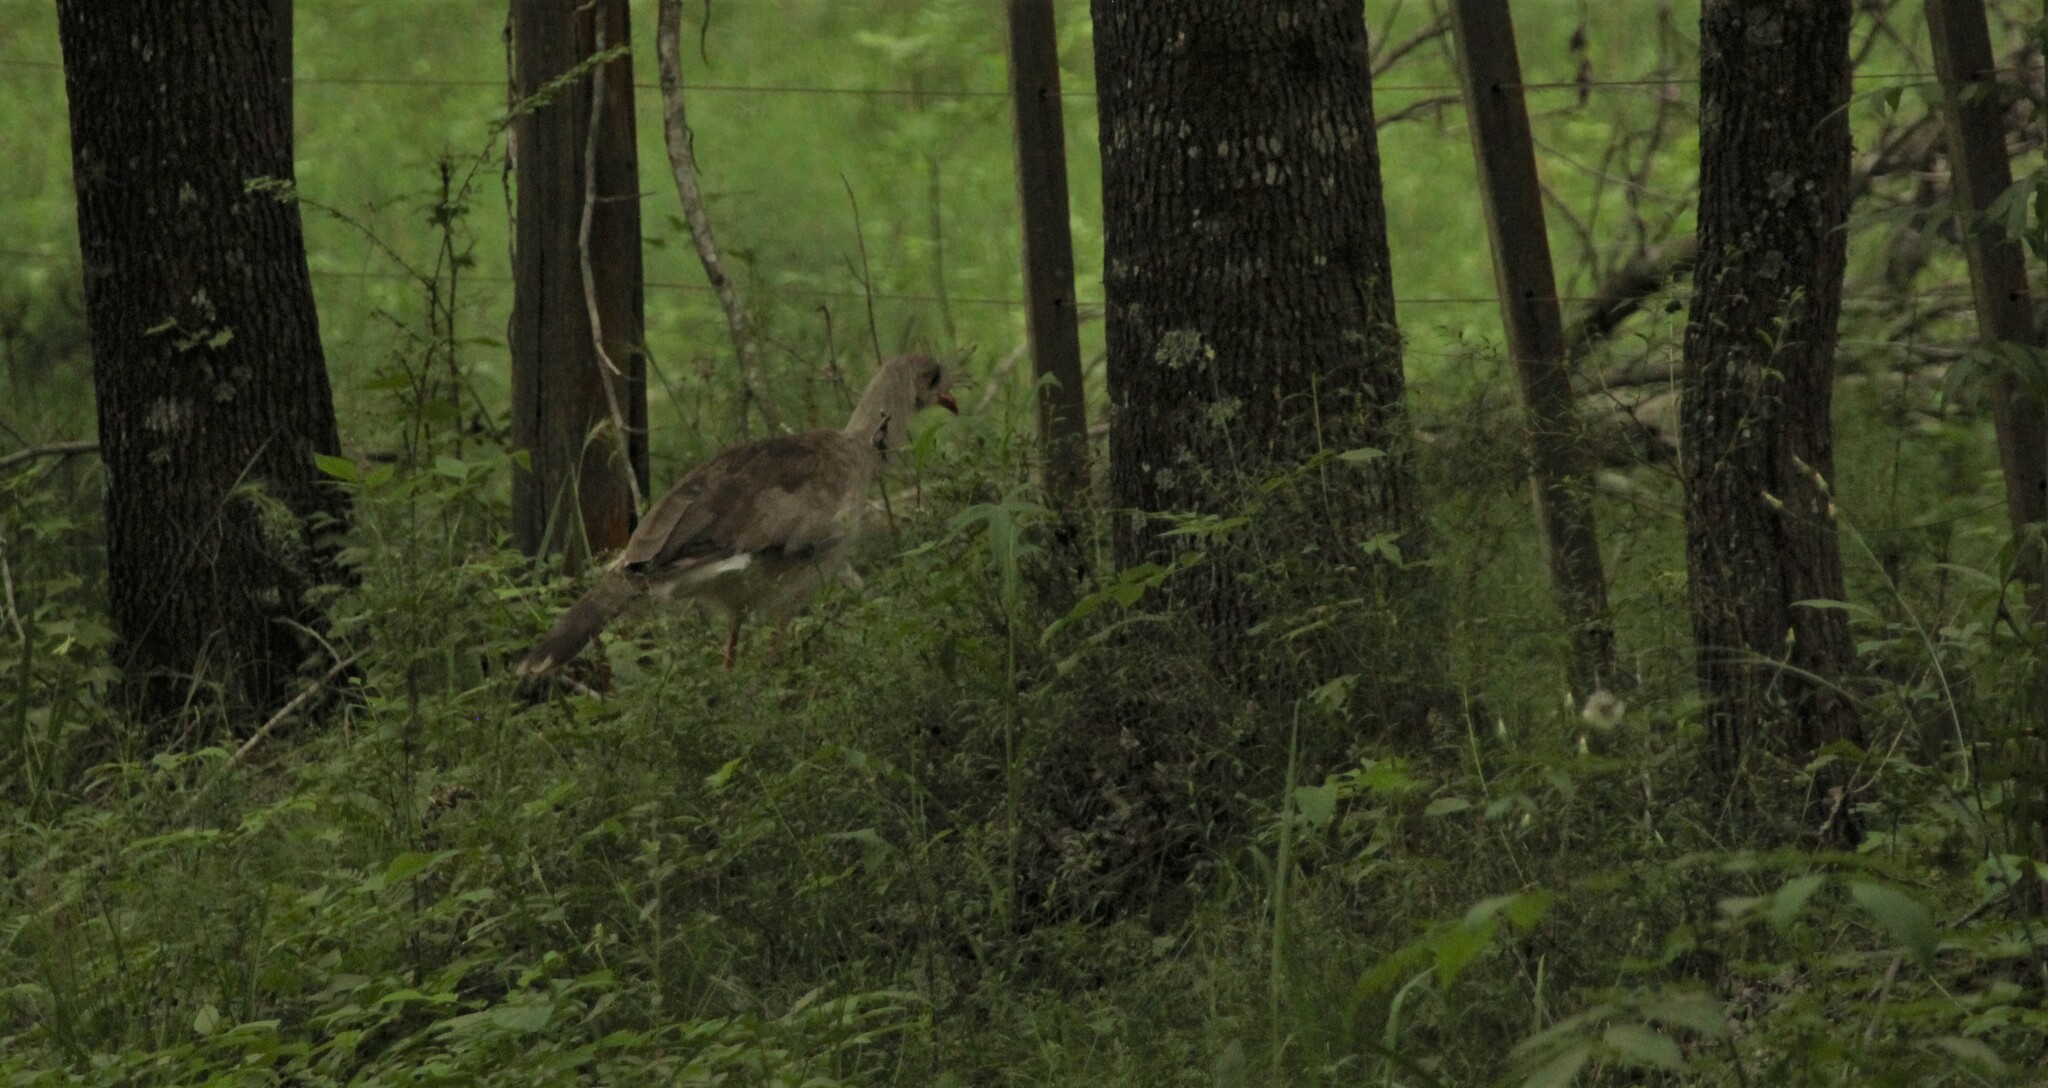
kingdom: Animalia
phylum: Chordata
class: Aves
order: Cariamiformes
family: Cariamidae
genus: Cariama
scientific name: Cariama cristata
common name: Red-legged seriema
